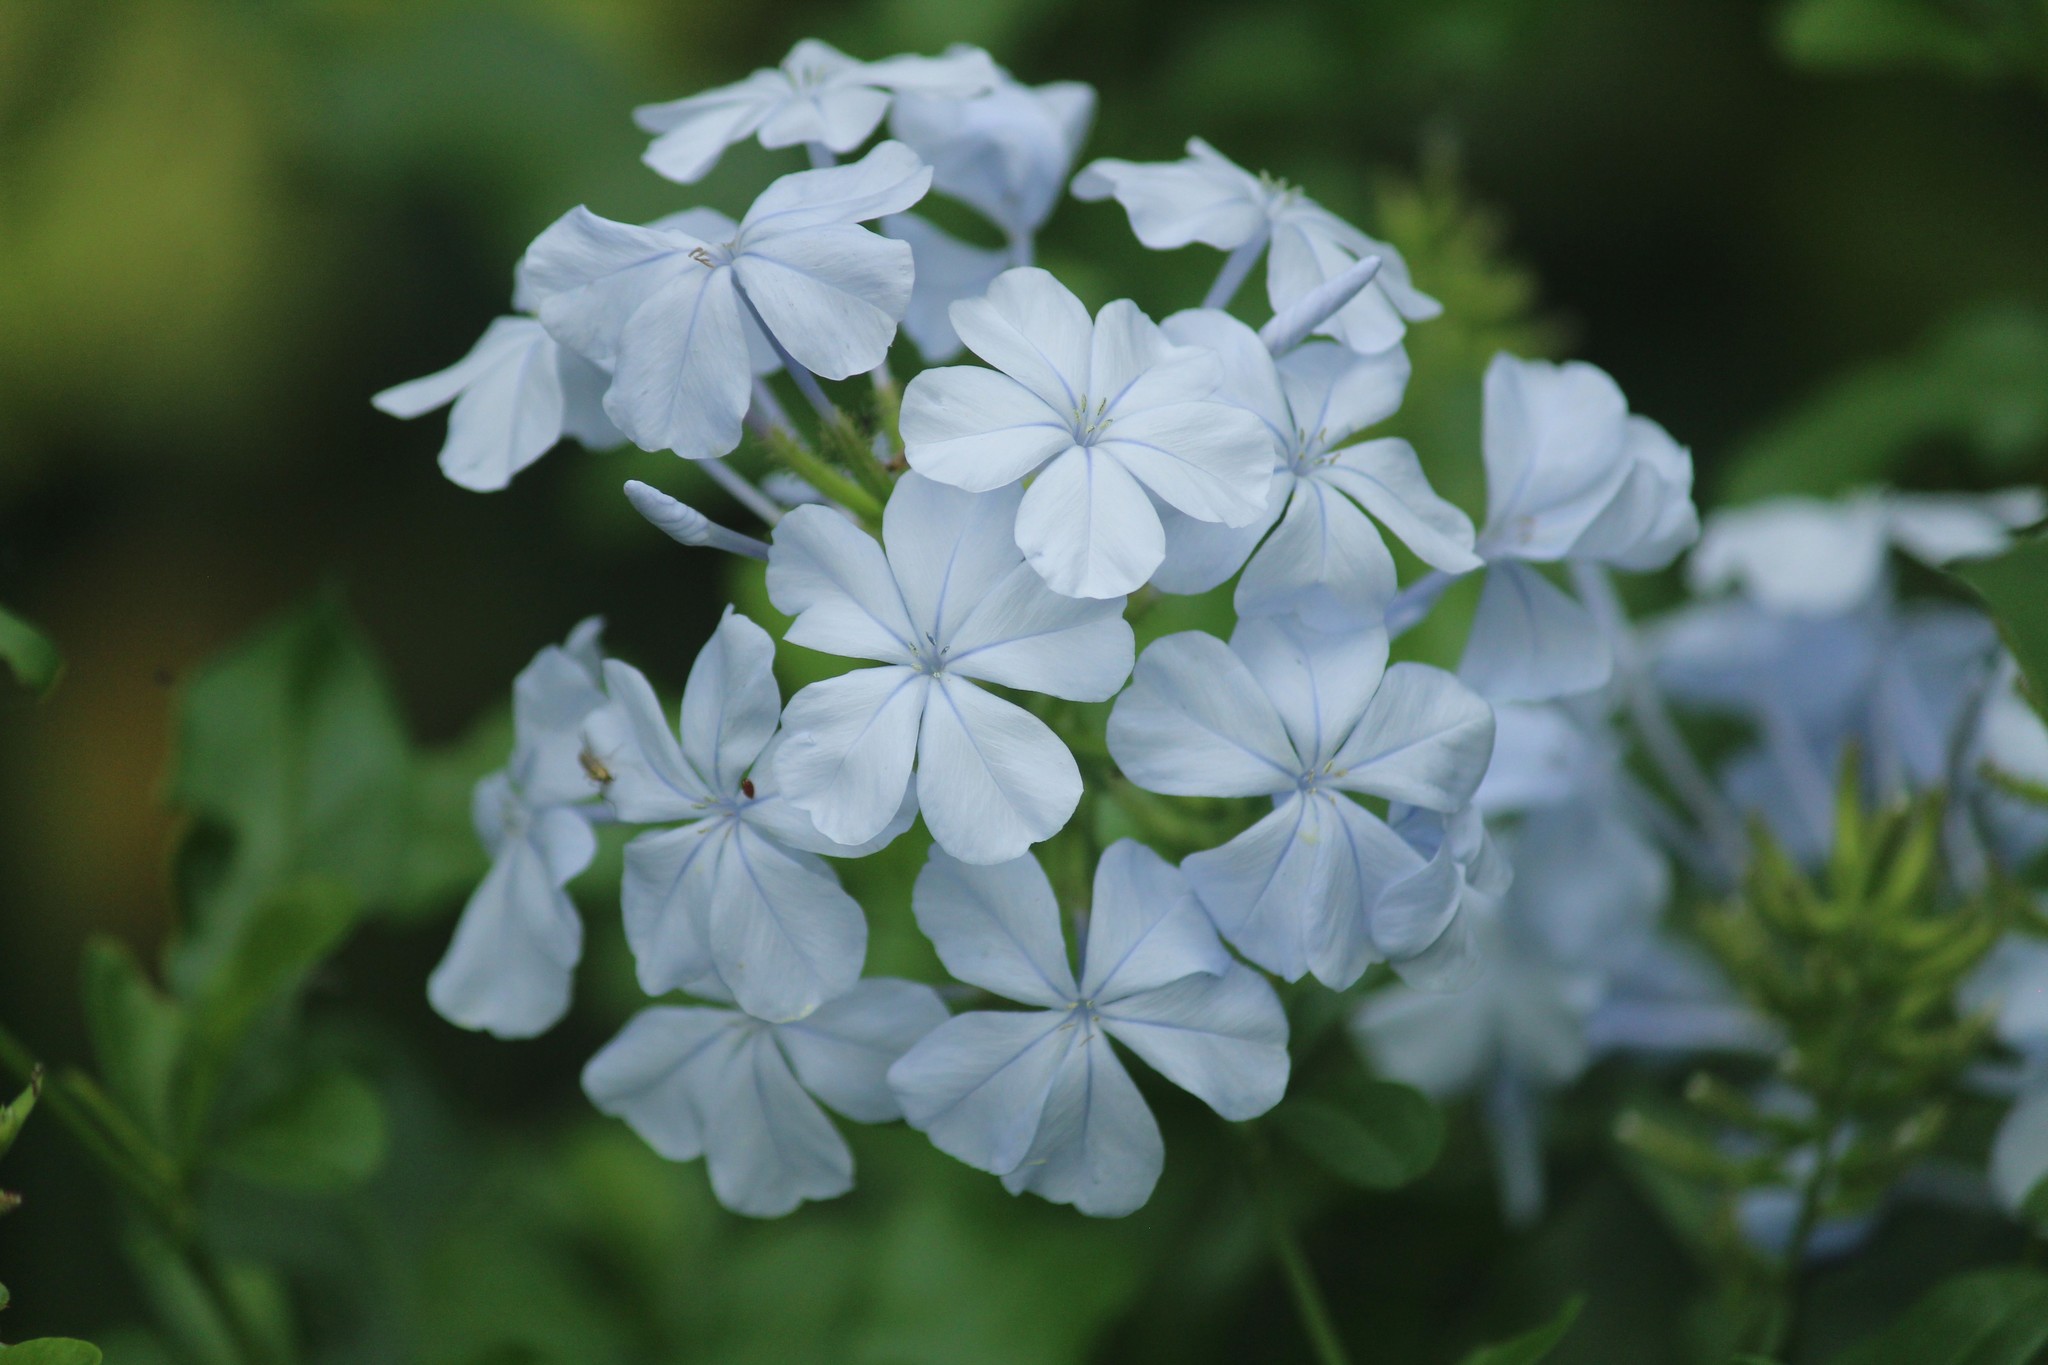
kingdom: Plantae
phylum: Tracheophyta
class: Magnoliopsida
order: Caryophyllales
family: Plumbaginaceae
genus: Plumbago
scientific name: Plumbago auriculata
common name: Cape leadwort
